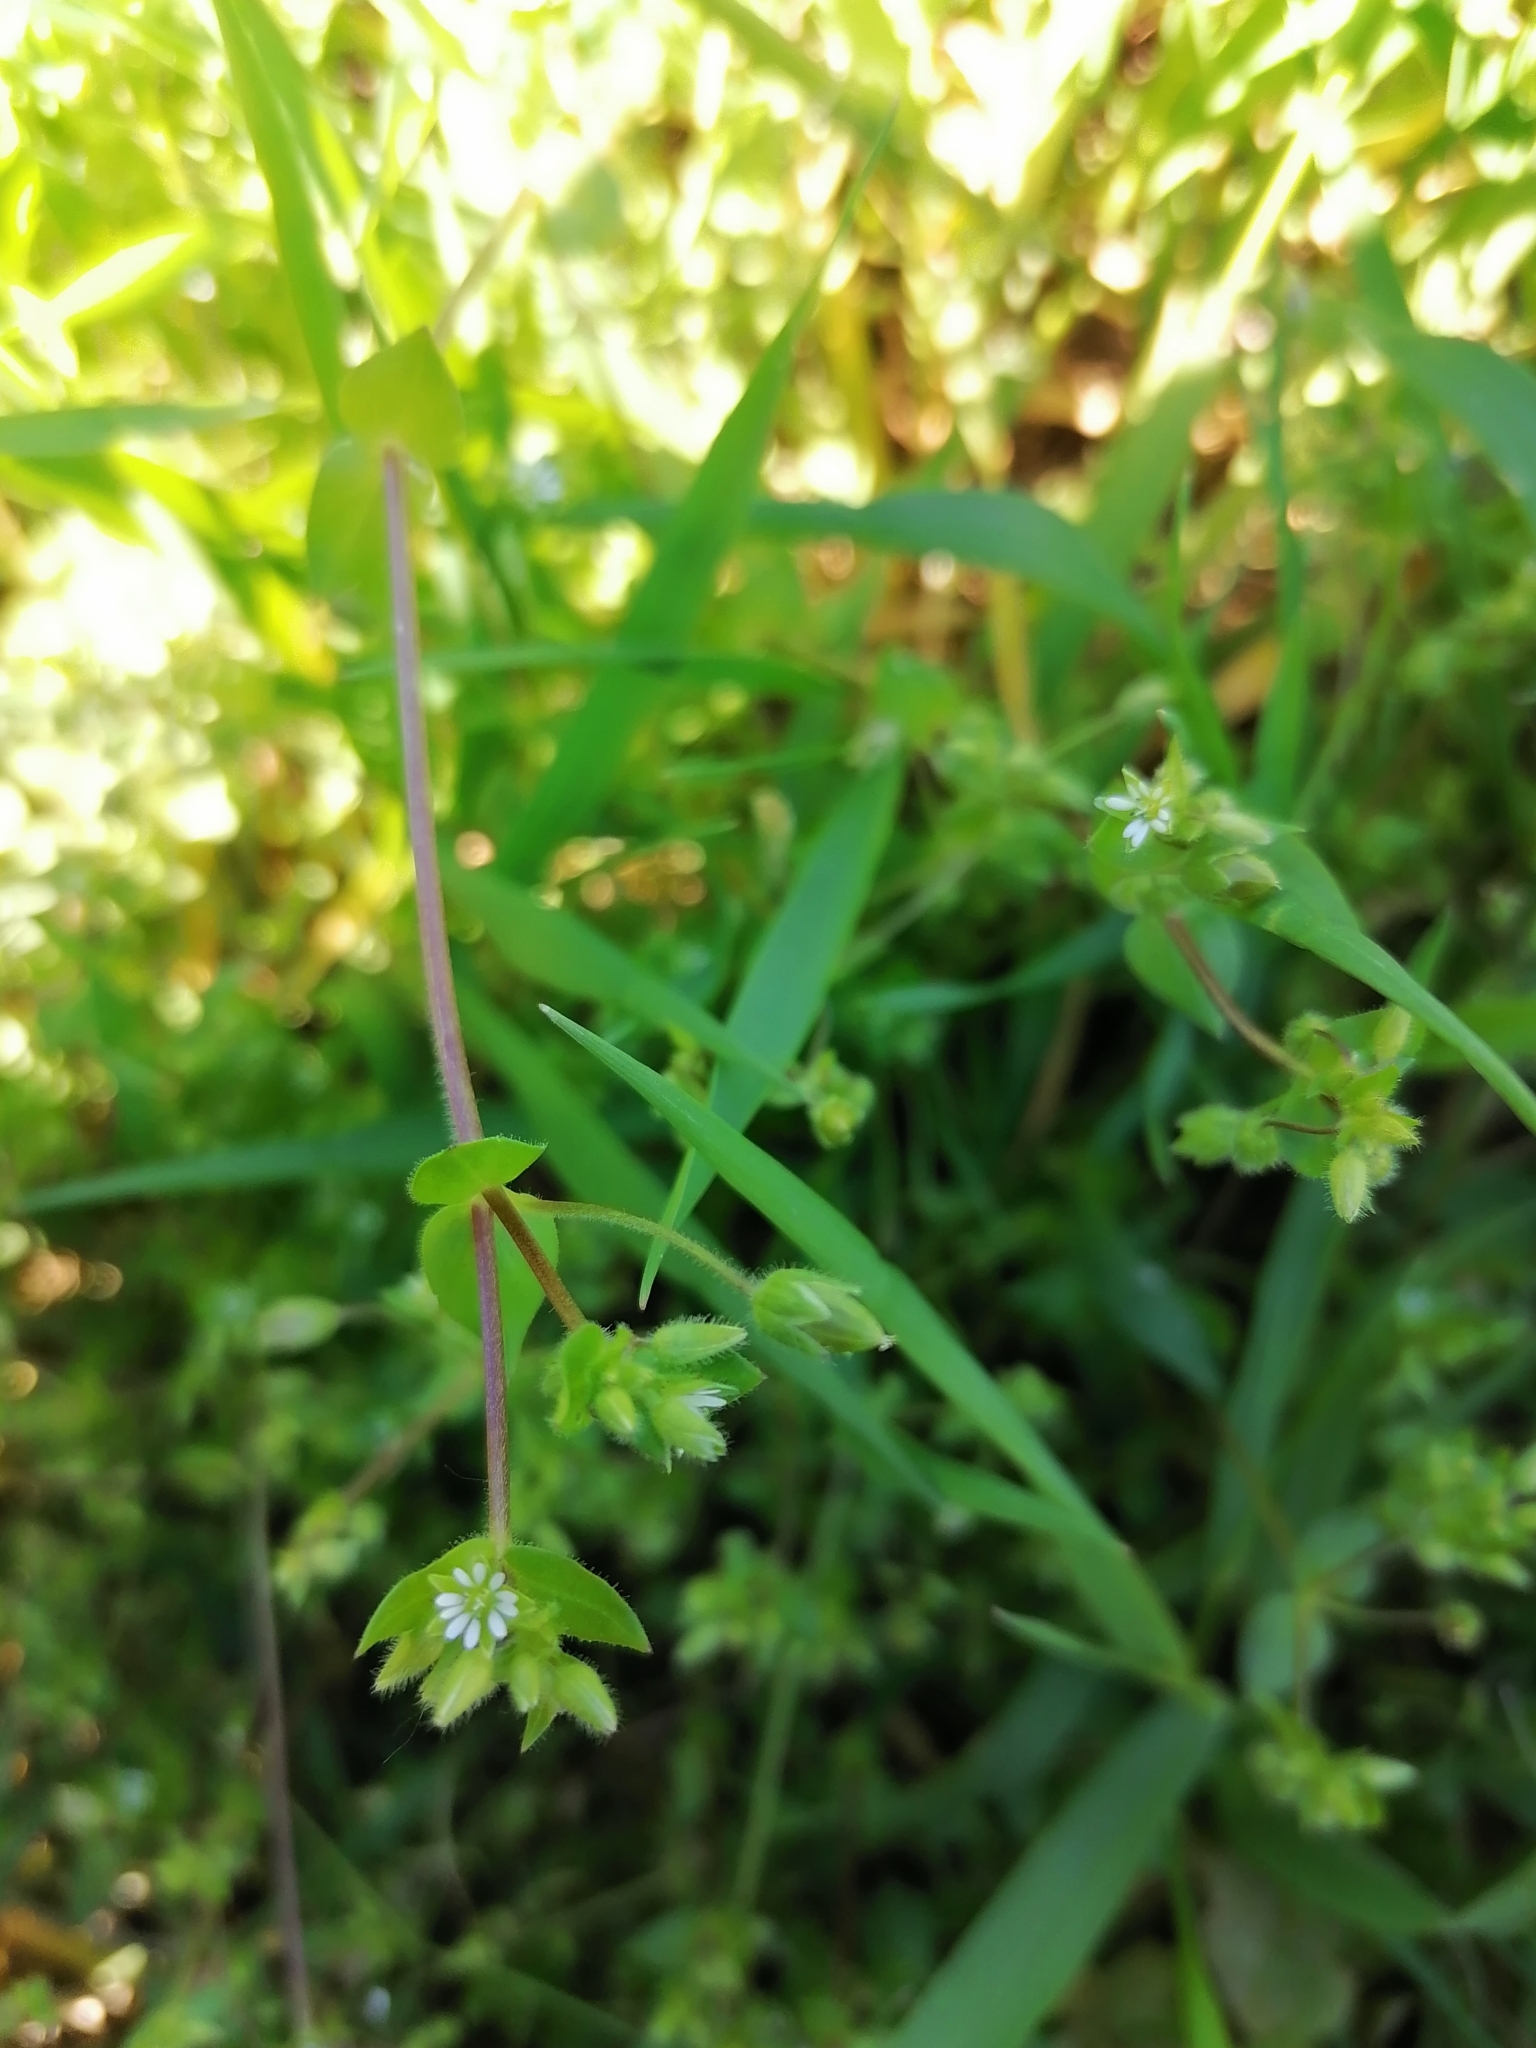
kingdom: Plantae
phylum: Tracheophyta
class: Magnoliopsida
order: Caryophyllales
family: Caryophyllaceae
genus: Stellaria
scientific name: Stellaria media
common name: Common chickweed
